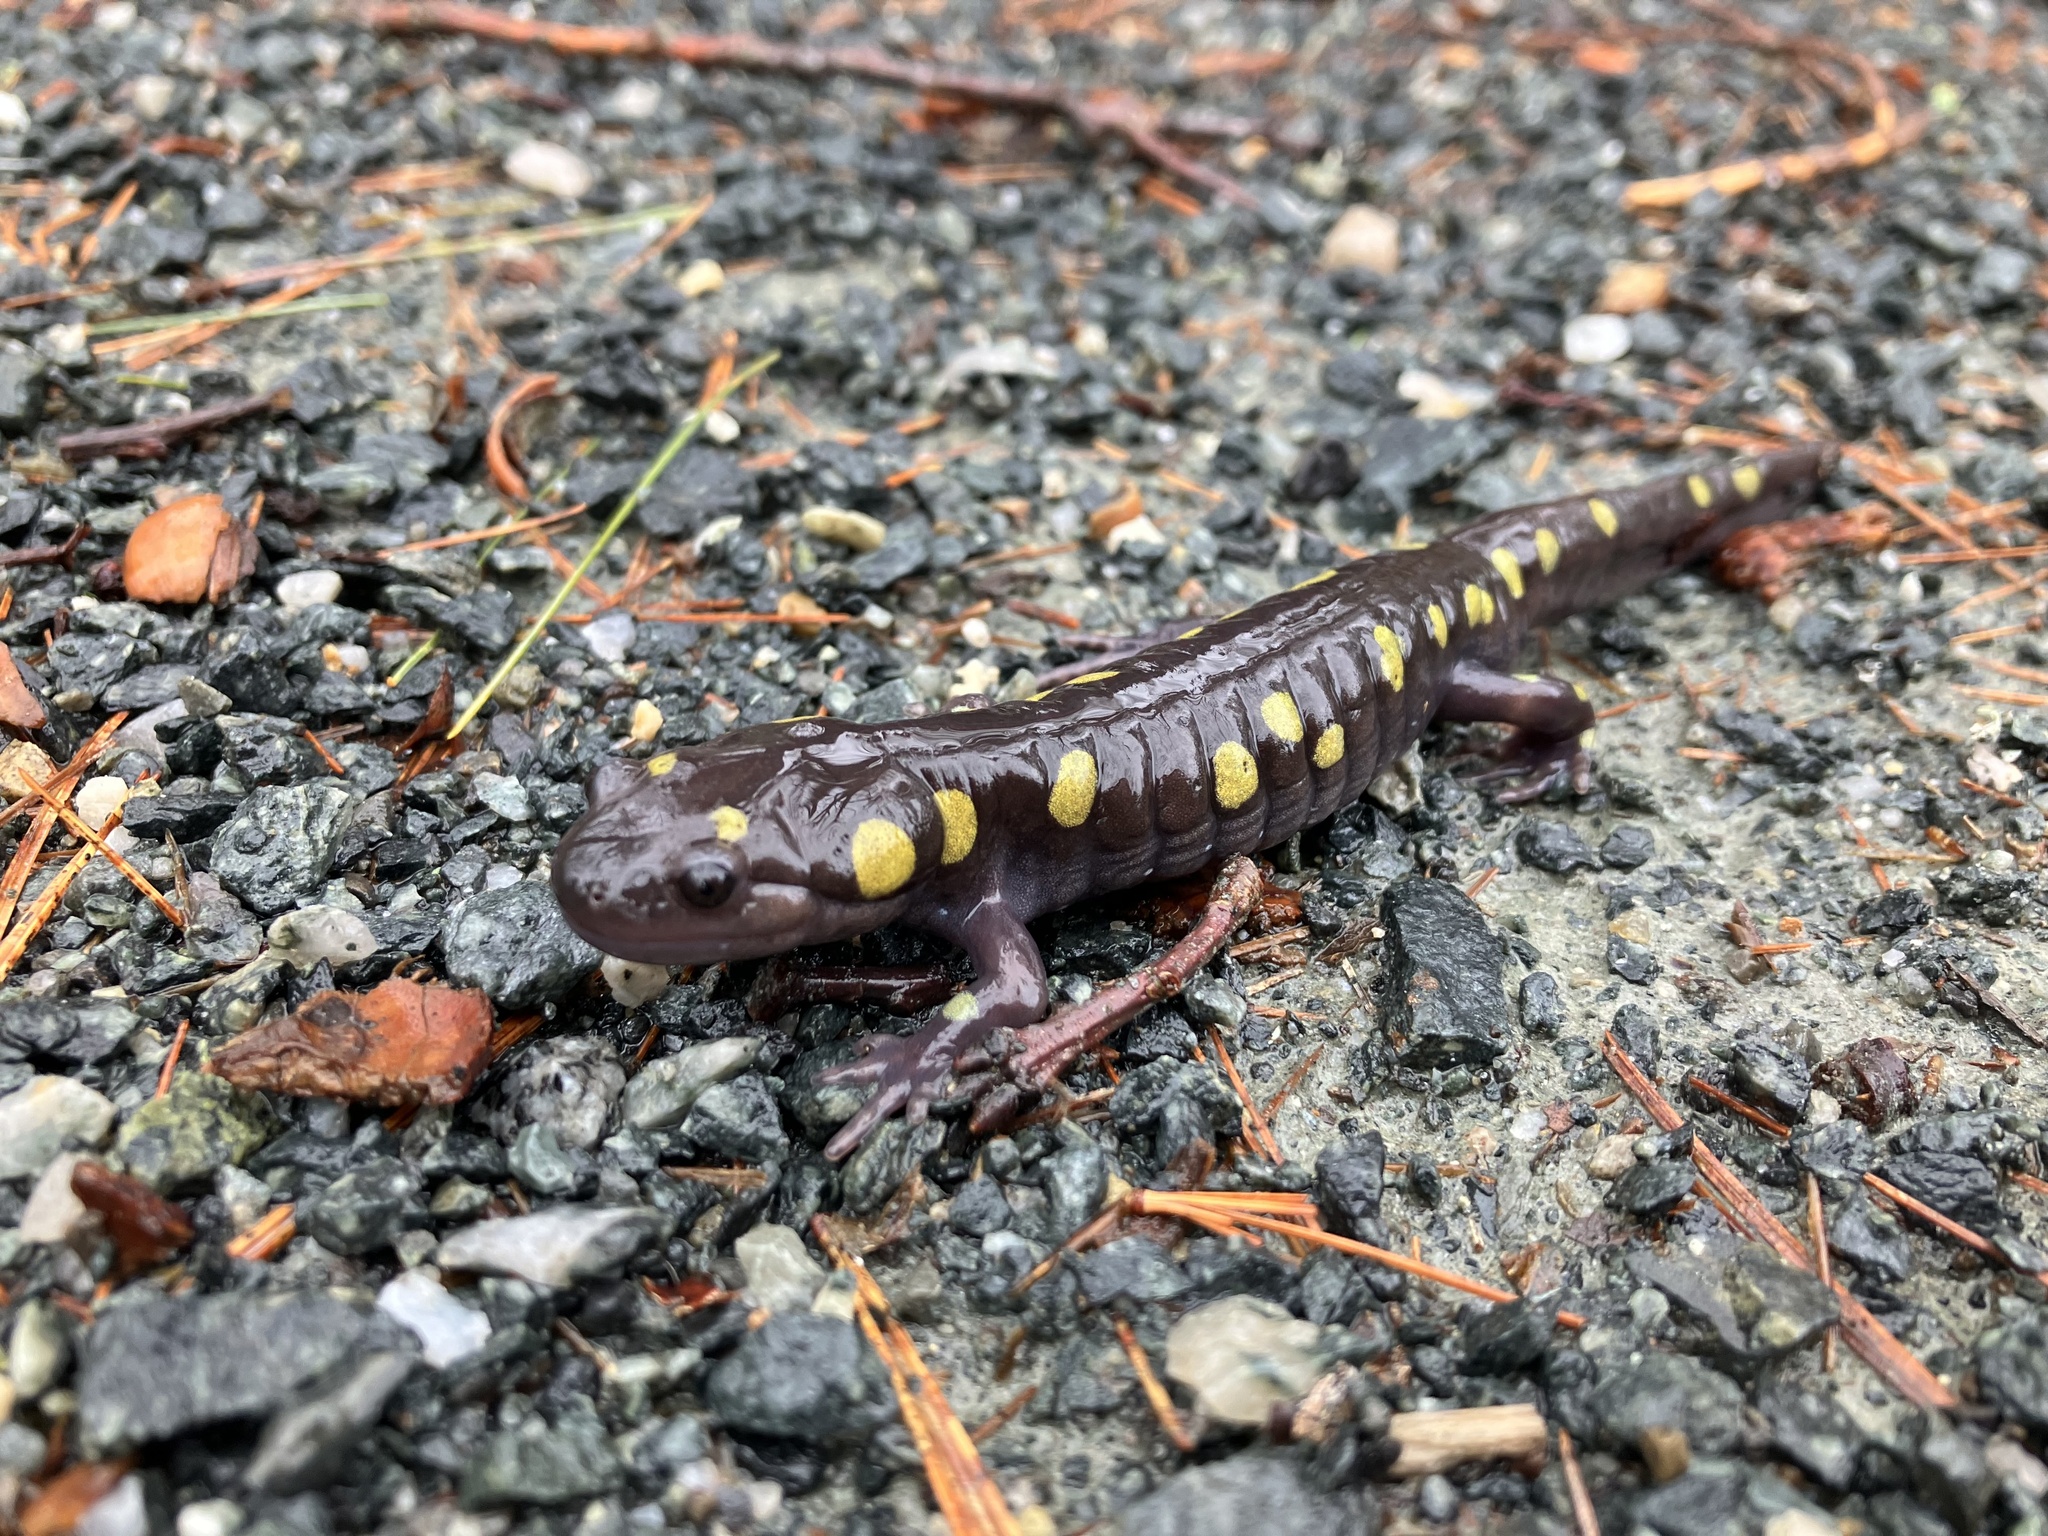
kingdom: Animalia
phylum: Chordata
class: Amphibia
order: Caudata
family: Ambystomatidae
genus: Ambystoma
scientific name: Ambystoma maculatum
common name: Spotted salamander
